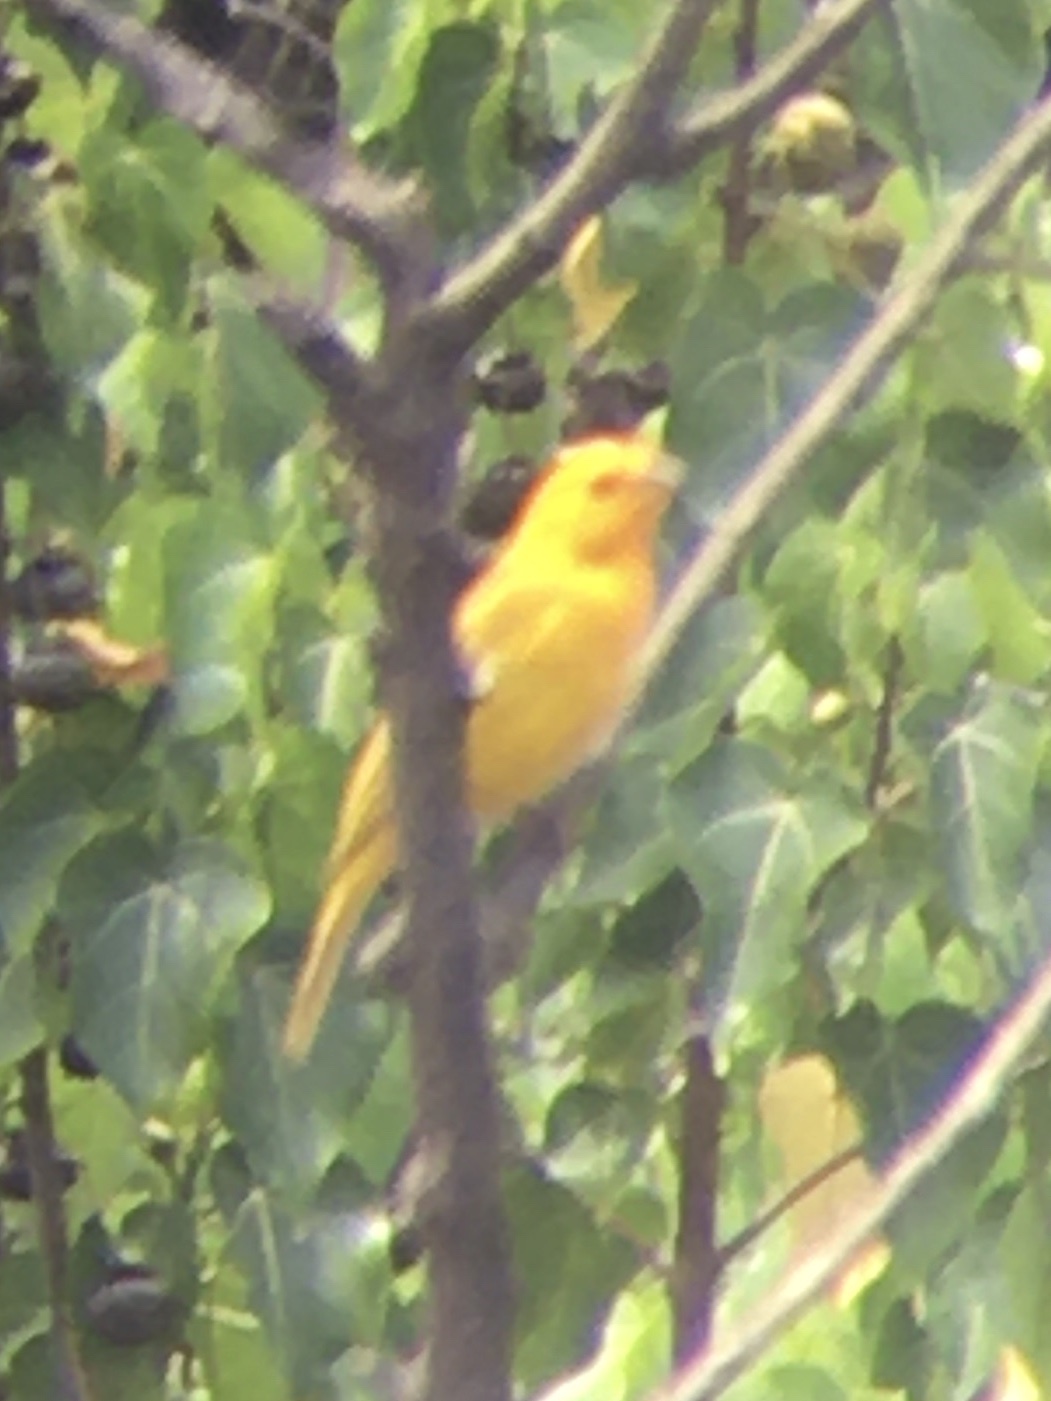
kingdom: Animalia
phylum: Chordata
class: Aves
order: Passeriformes
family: Thraupidae
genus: Sicalis
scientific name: Sicalis flaveola
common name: Saffron finch
